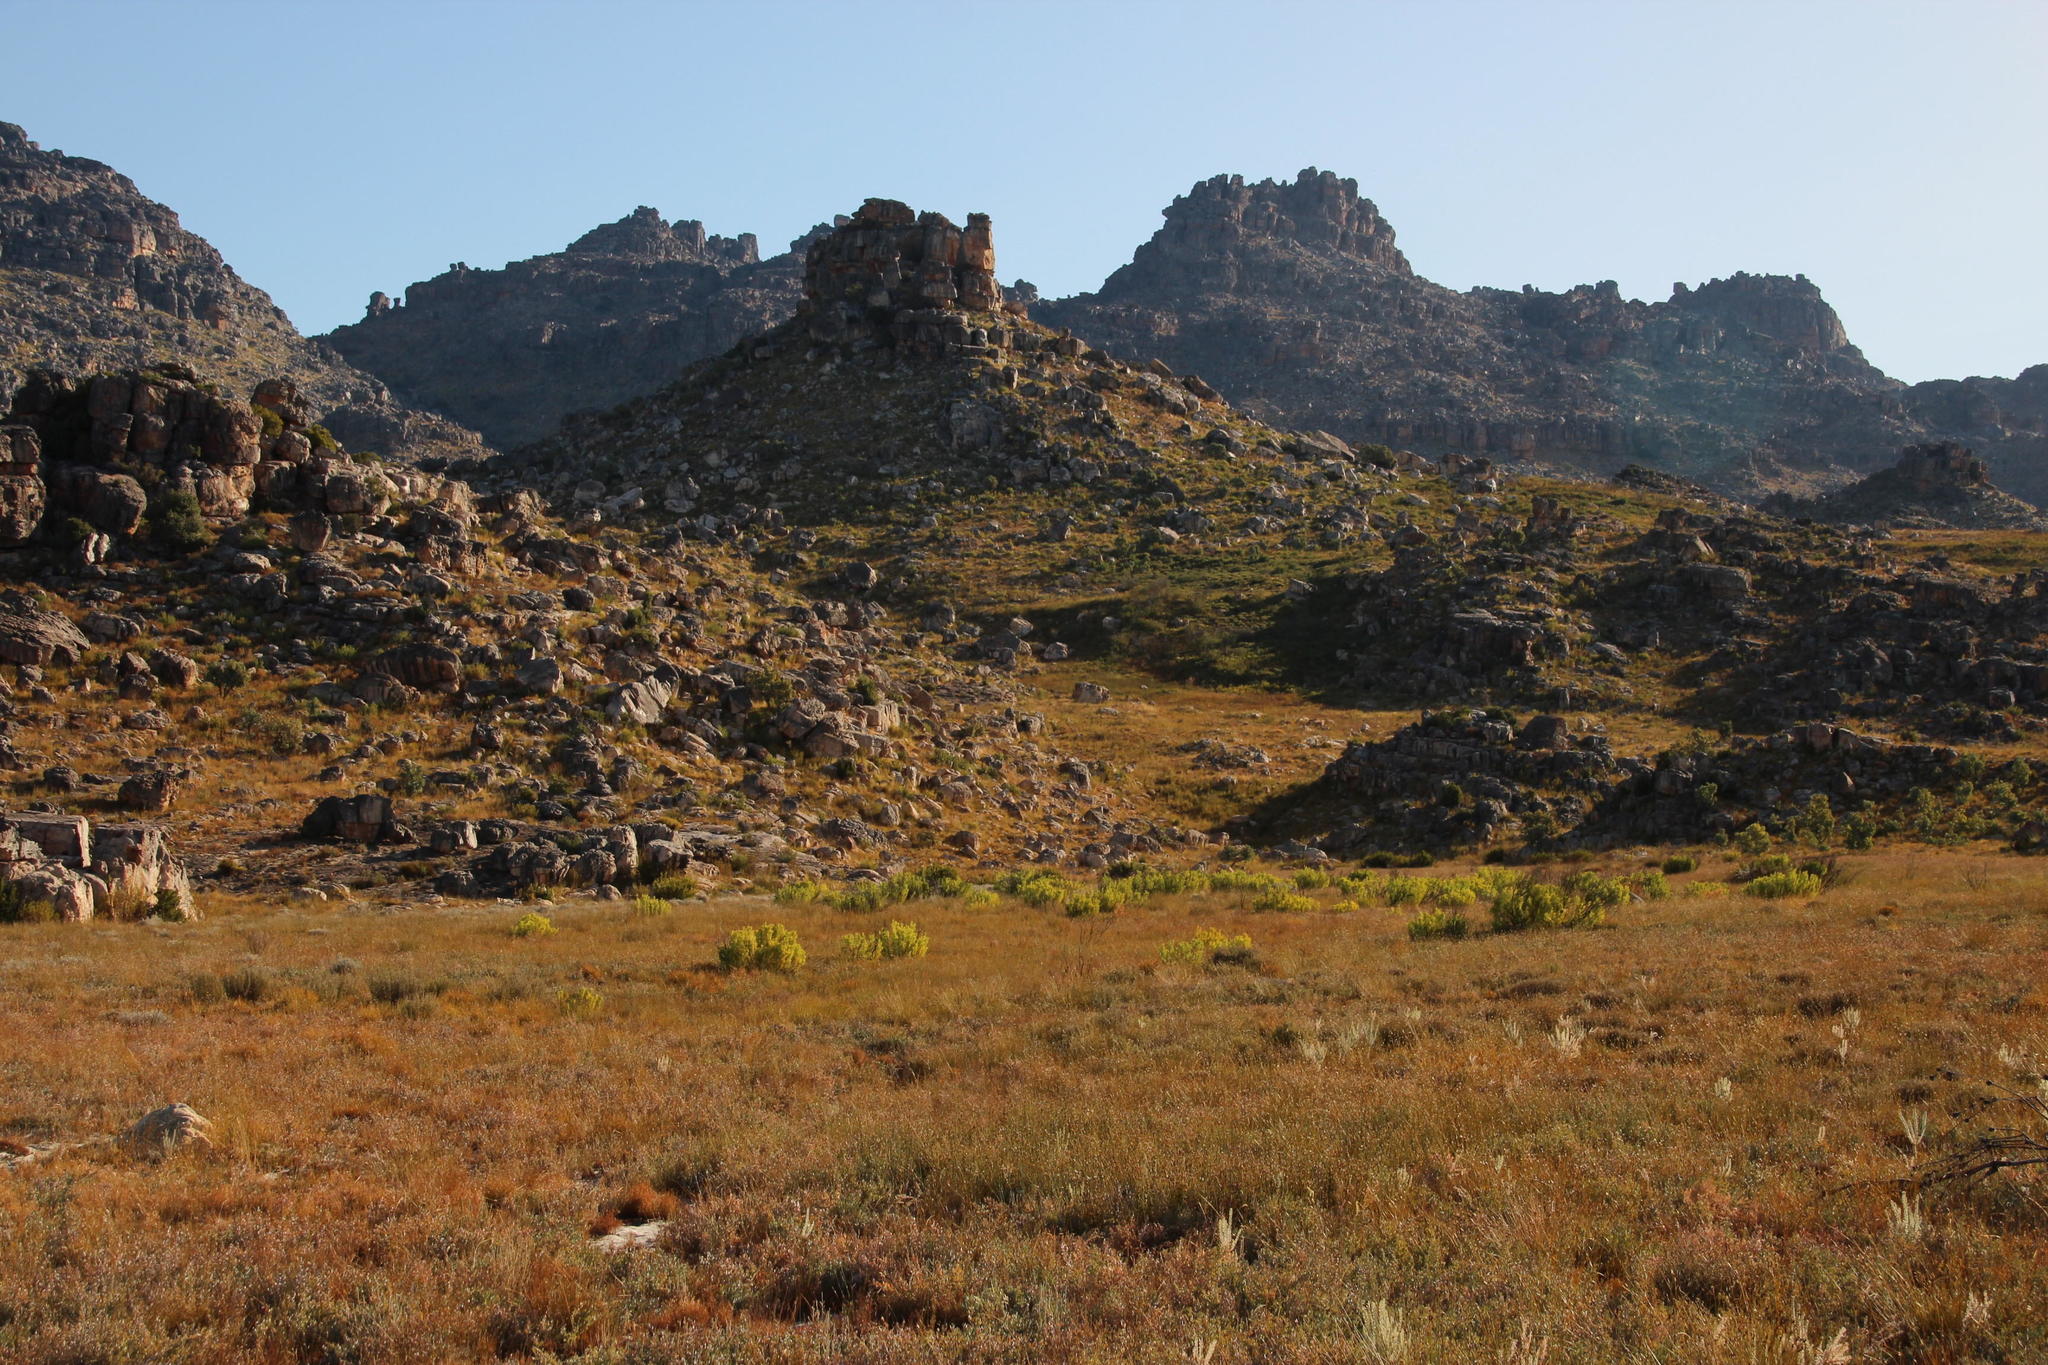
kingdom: Plantae
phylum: Tracheophyta
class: Magnoliopsida
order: Proteales
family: Proteaceae
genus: Leucadendron
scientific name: Leucadendron salignum
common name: Common sunshine conebush
